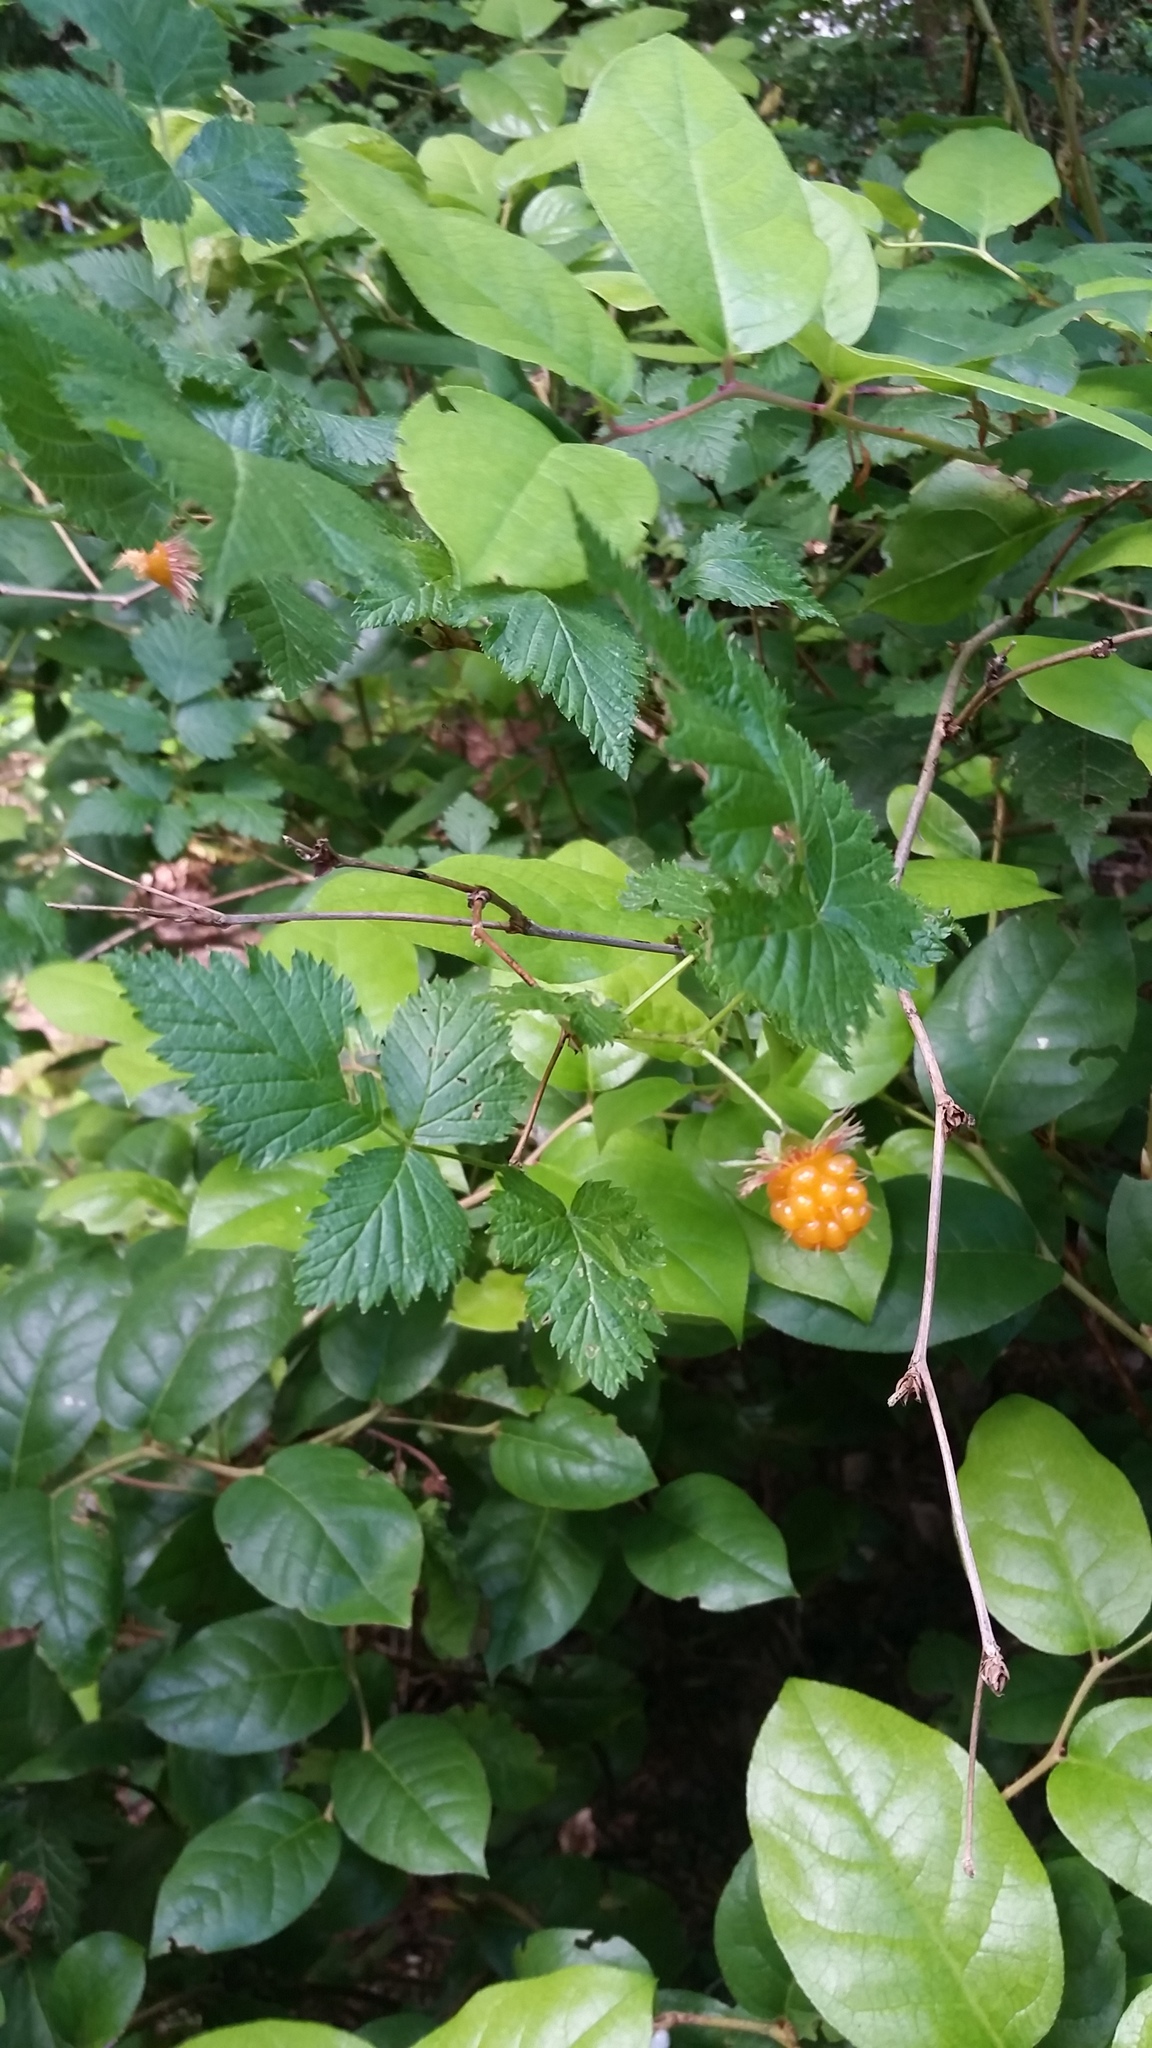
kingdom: Plantae
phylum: Tracheophyta
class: Magnoliopsida
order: Rosales
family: Rosaceae
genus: Rubus
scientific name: Rubus spectabilis
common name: Salmonberry
